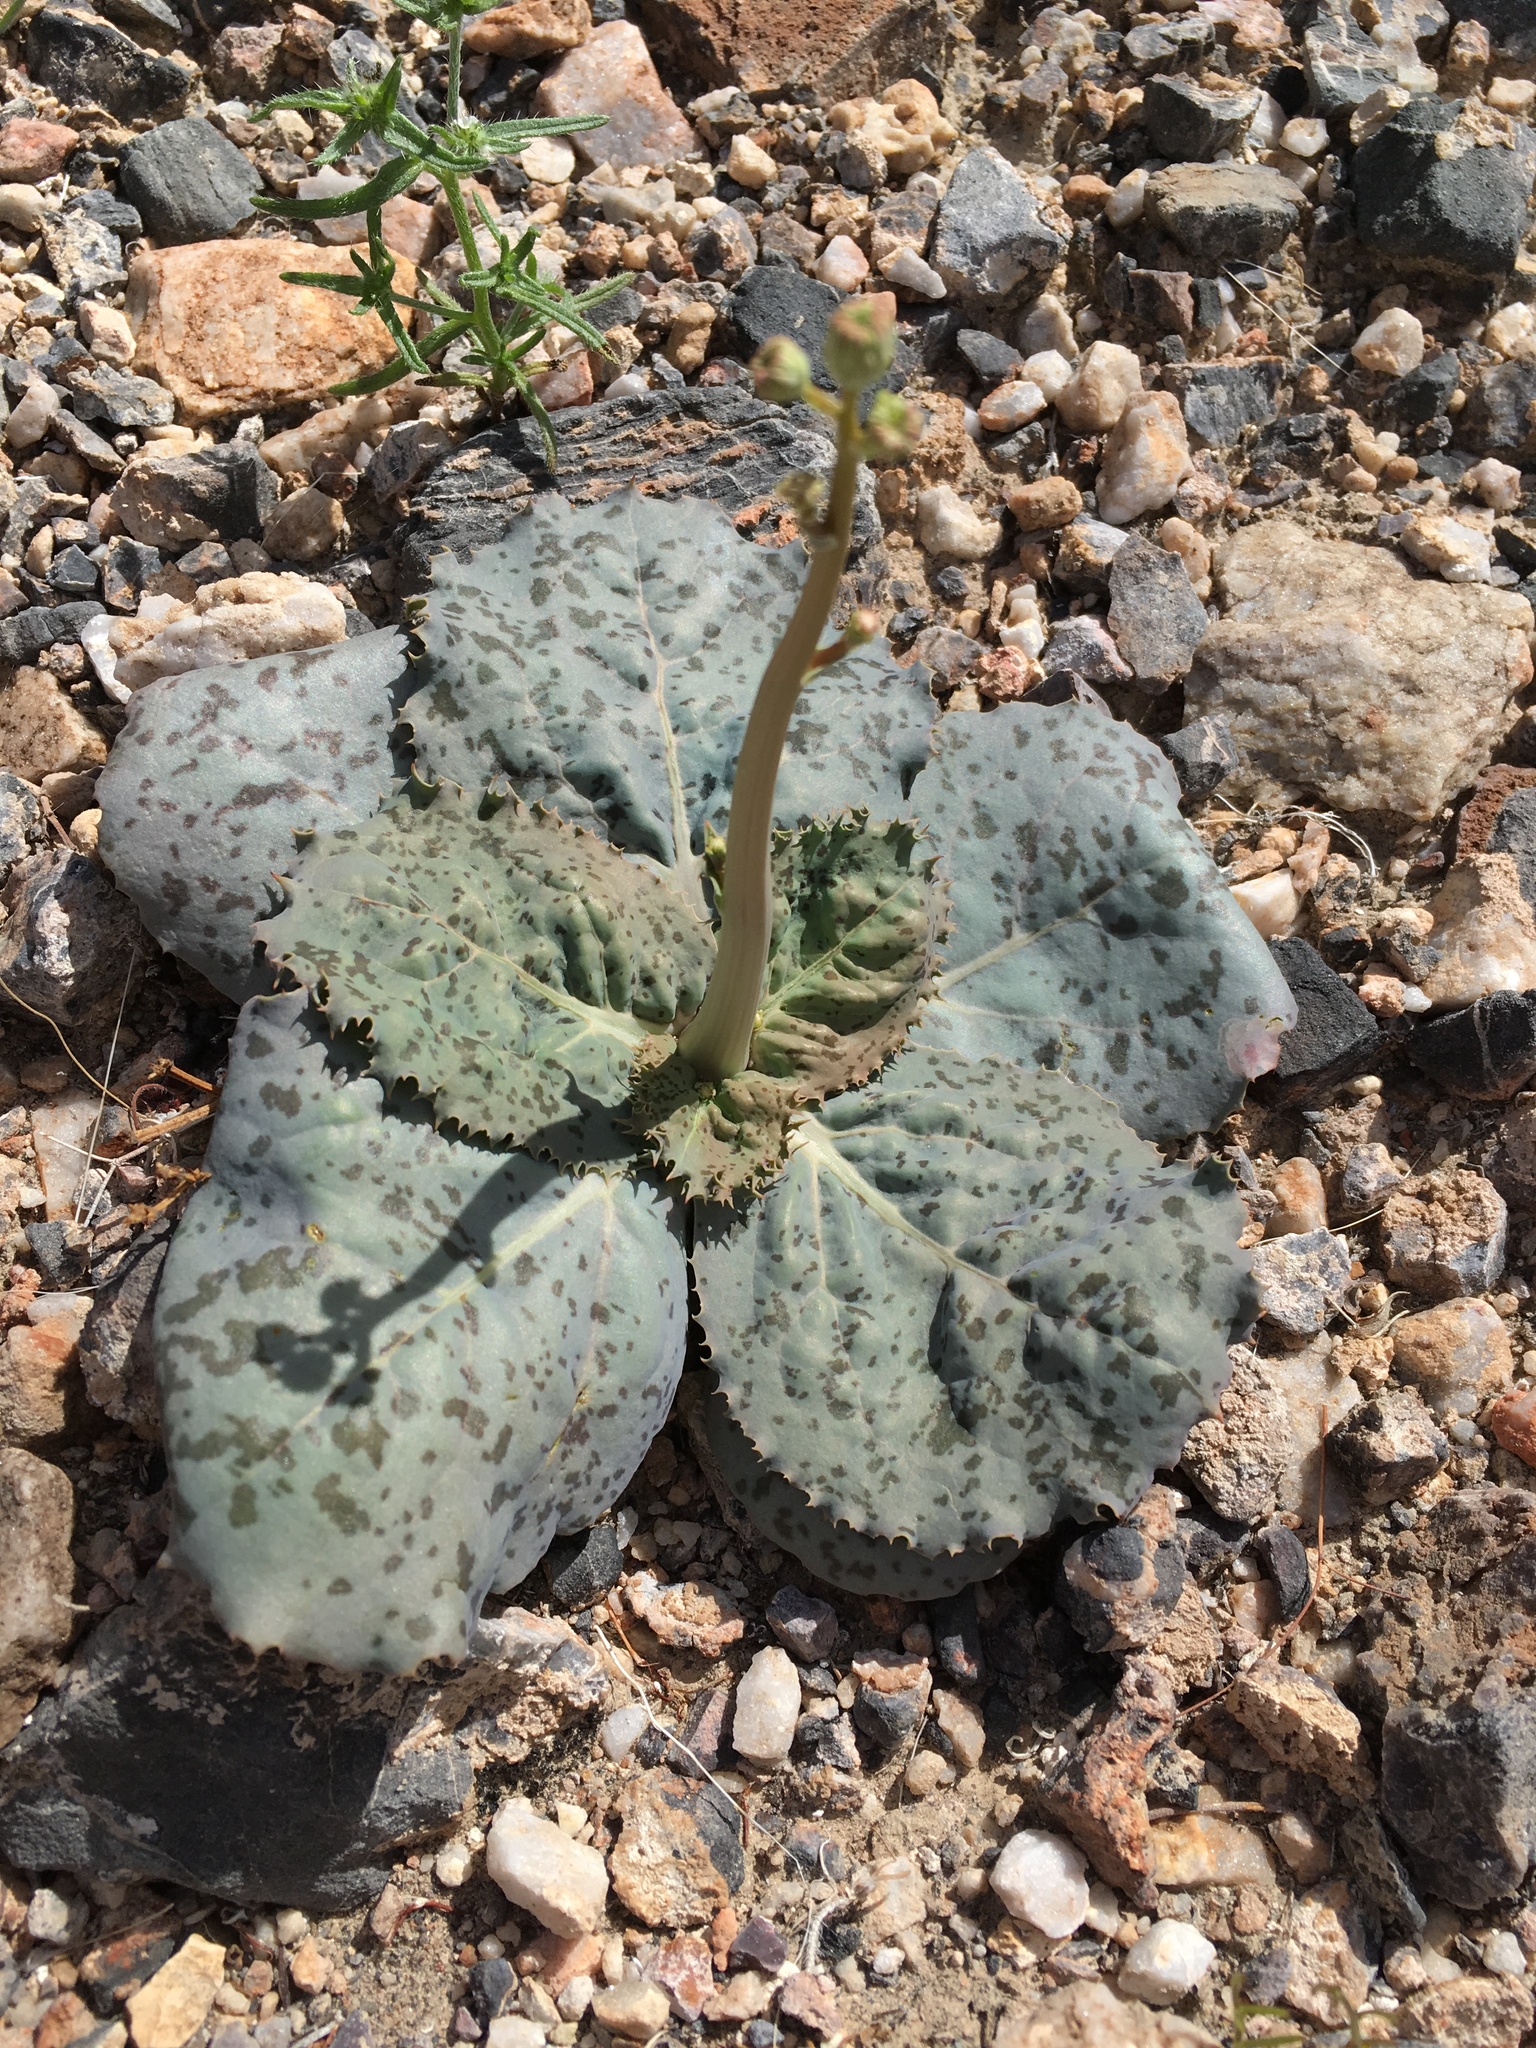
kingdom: Plantae
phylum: Tracheophyta
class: Magnoliopsida
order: Asterales
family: Asteraceae
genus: Atrichoseris
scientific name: Atrichoseris platyphylla
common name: Tobaccoweed
